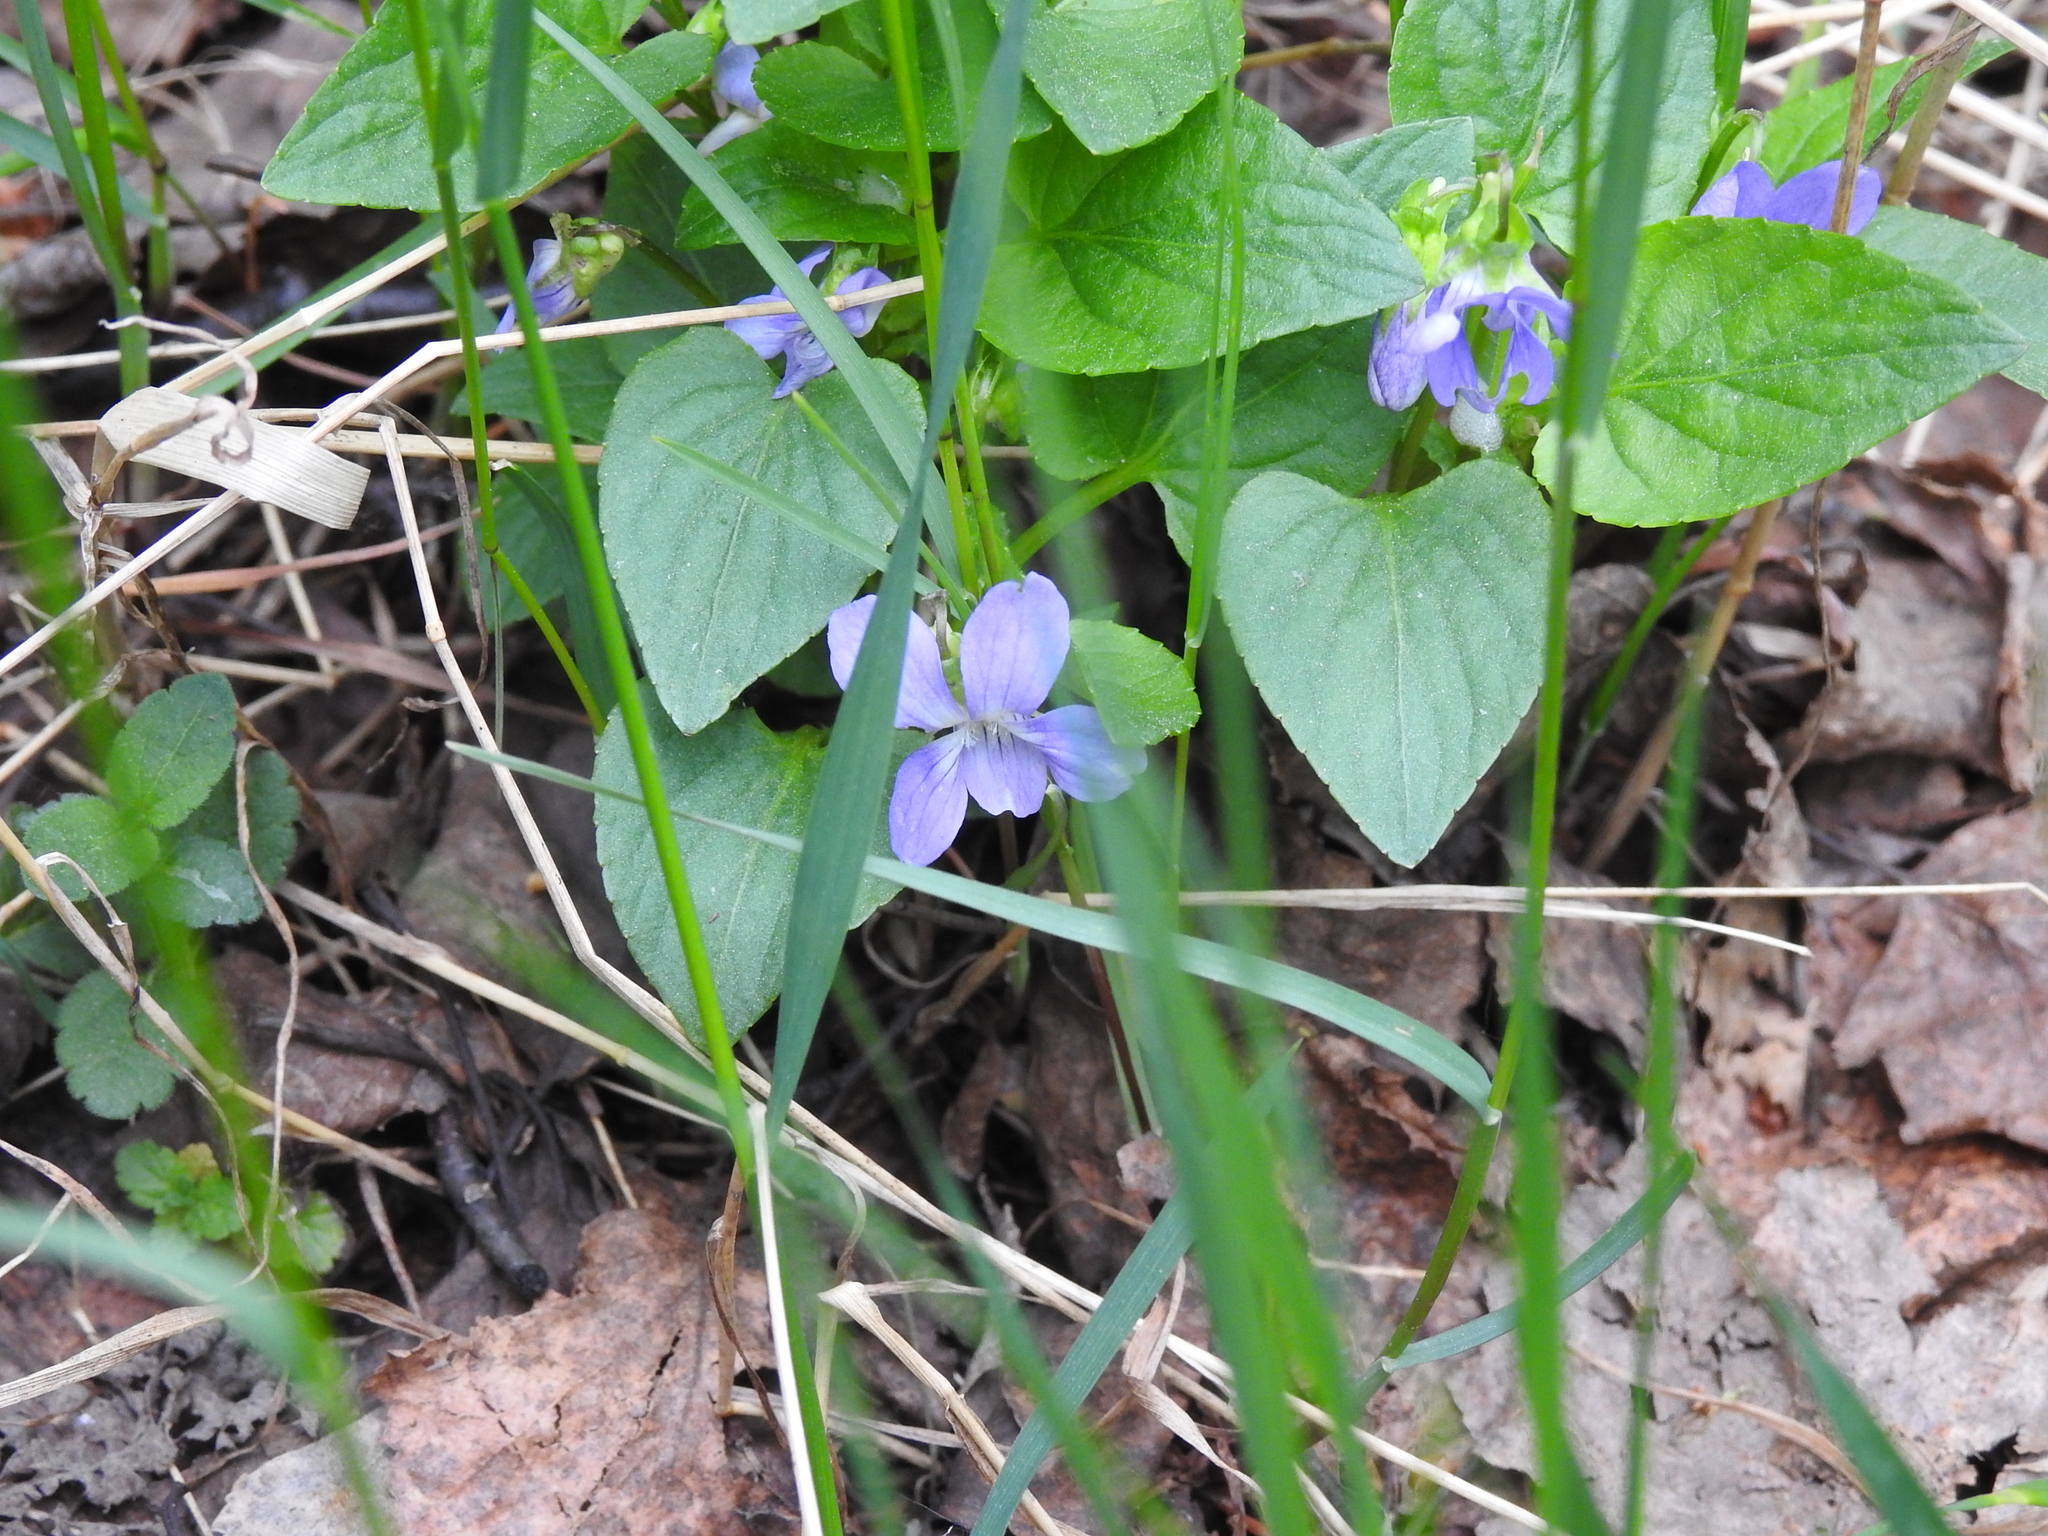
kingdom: Plantae
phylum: Tracheophyta
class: Magnoliopsida
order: Malpighiales
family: Violaceae
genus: Viola
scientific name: Viola canina
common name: Heath dog-violet
